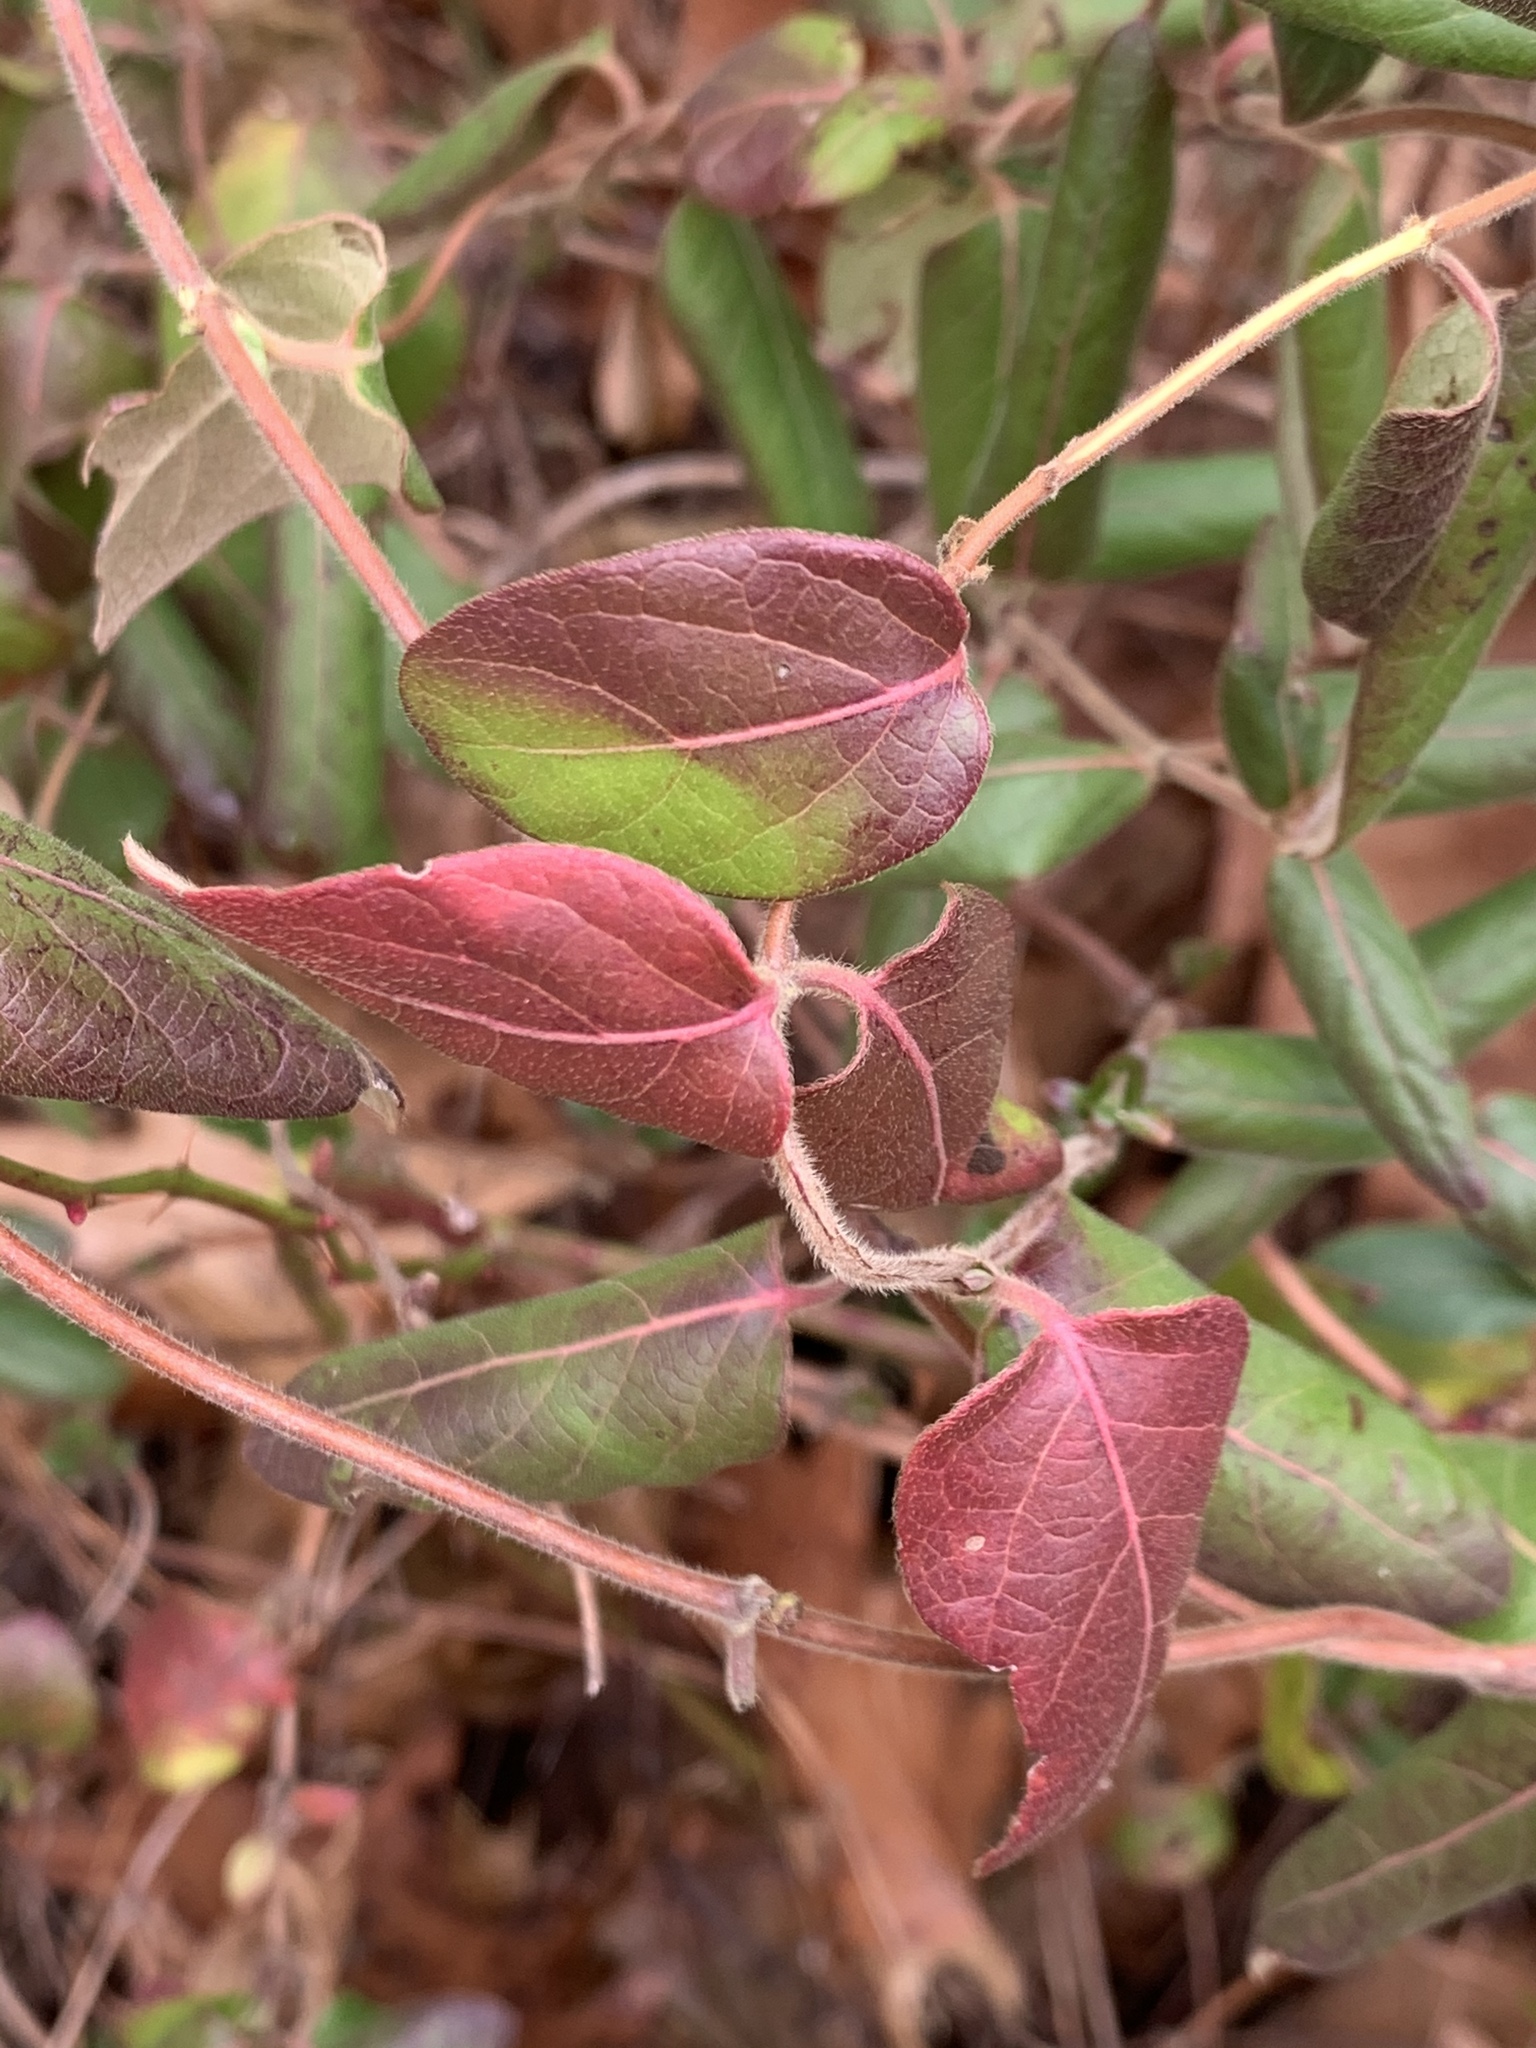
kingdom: Plantae
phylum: Tracheophyta
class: Magnoliopsida
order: Dipsacales
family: Caprifoliaceae
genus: Lonicera
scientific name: Lonicera japonica
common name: Japanese honeysuckle
